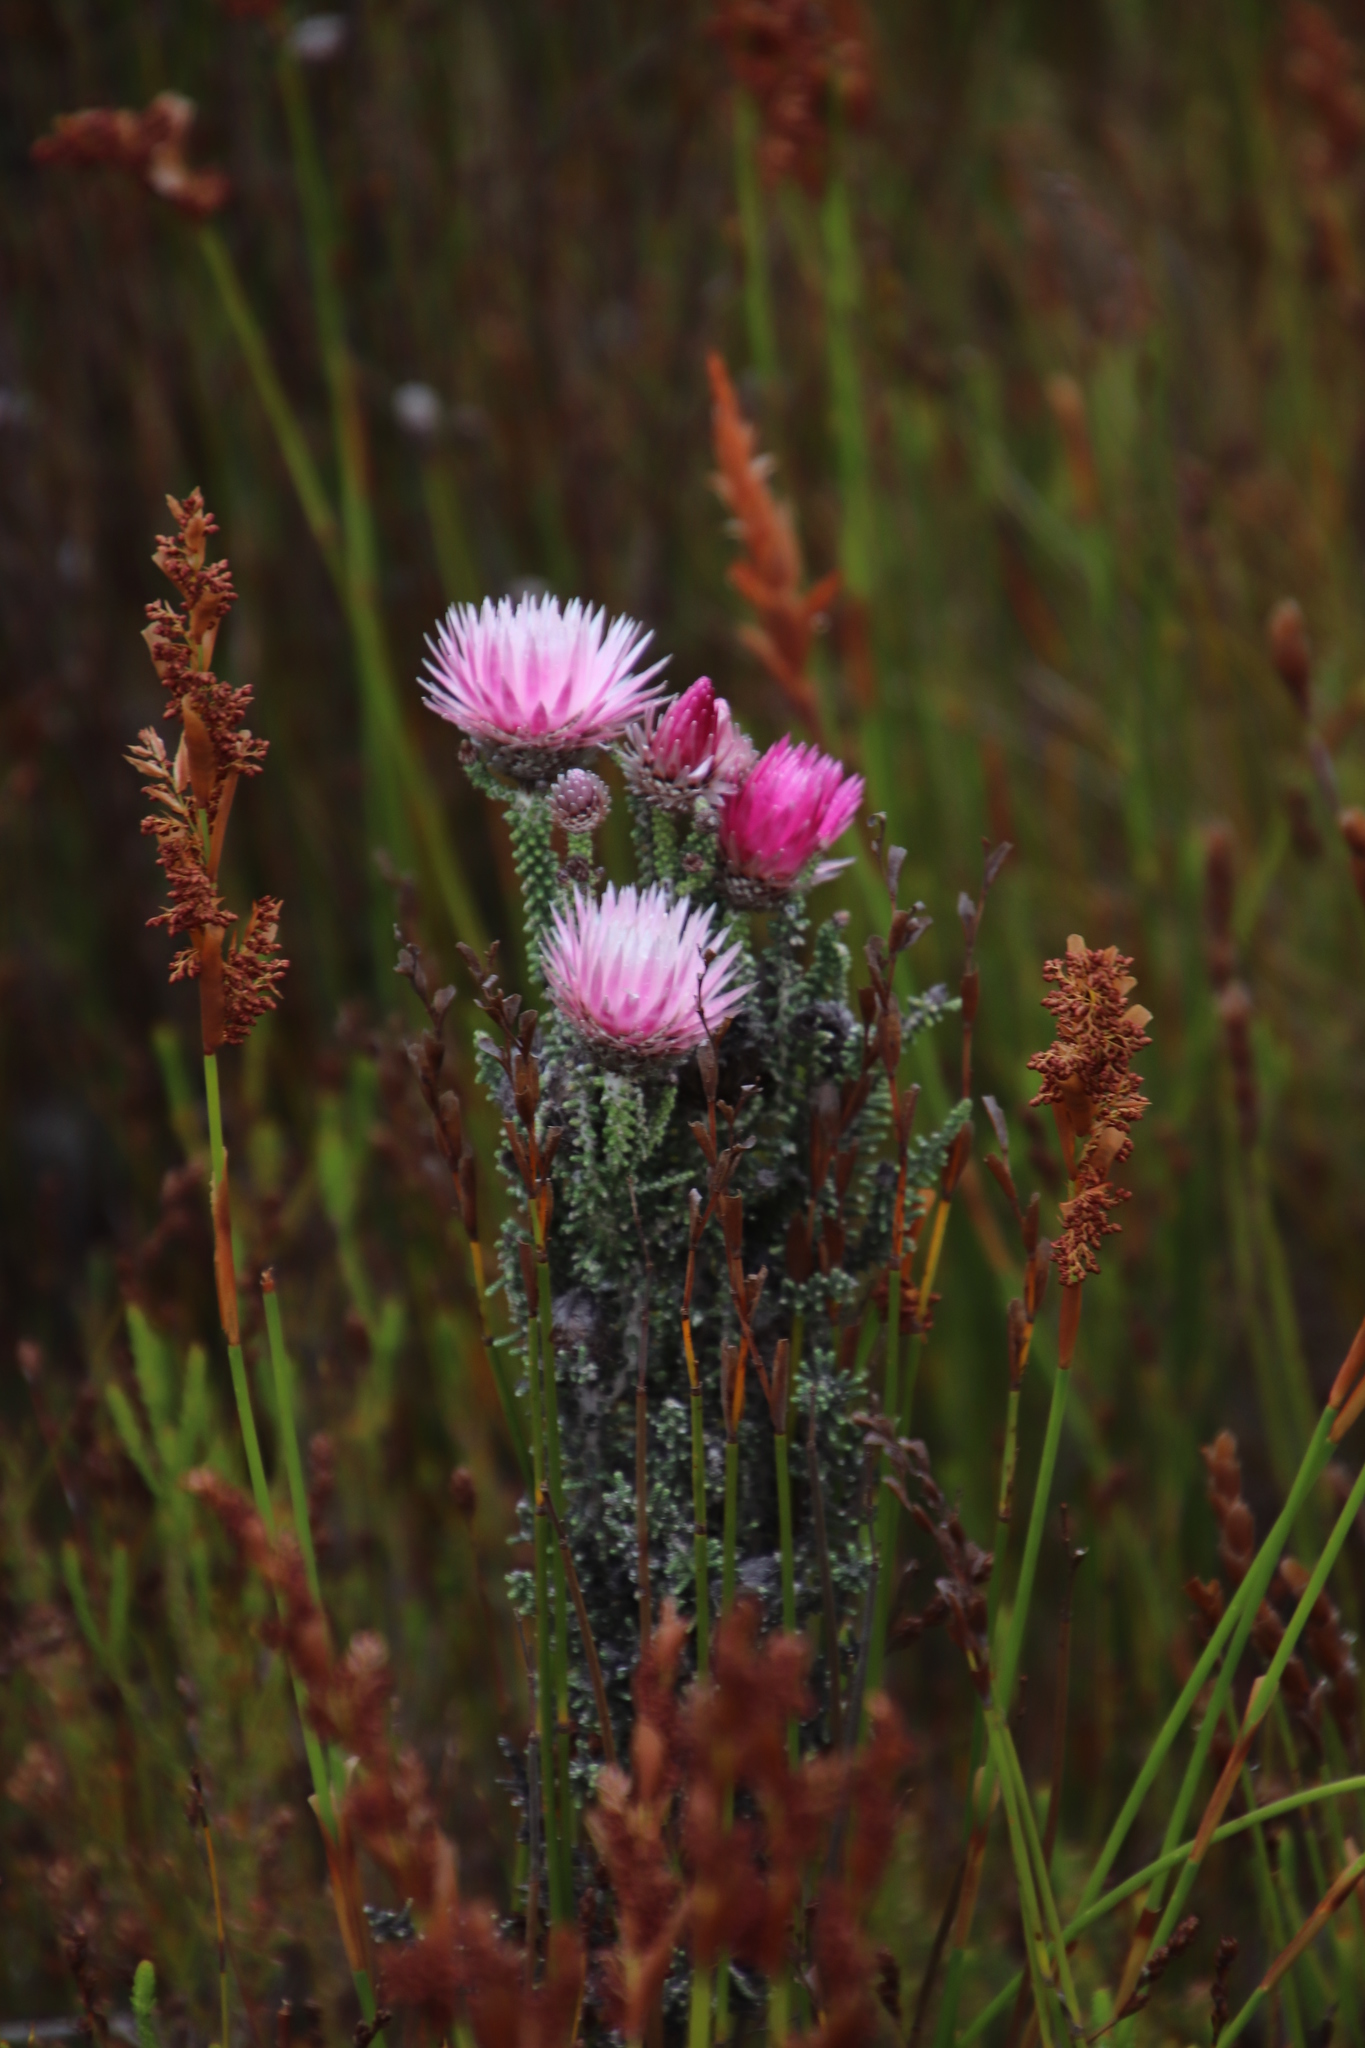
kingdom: Plantae
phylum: Tracheophyta
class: Magnoliopsida
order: Asterales
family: Asteraceae
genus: Phaenocoma
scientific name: Phaenocoma prolifera
